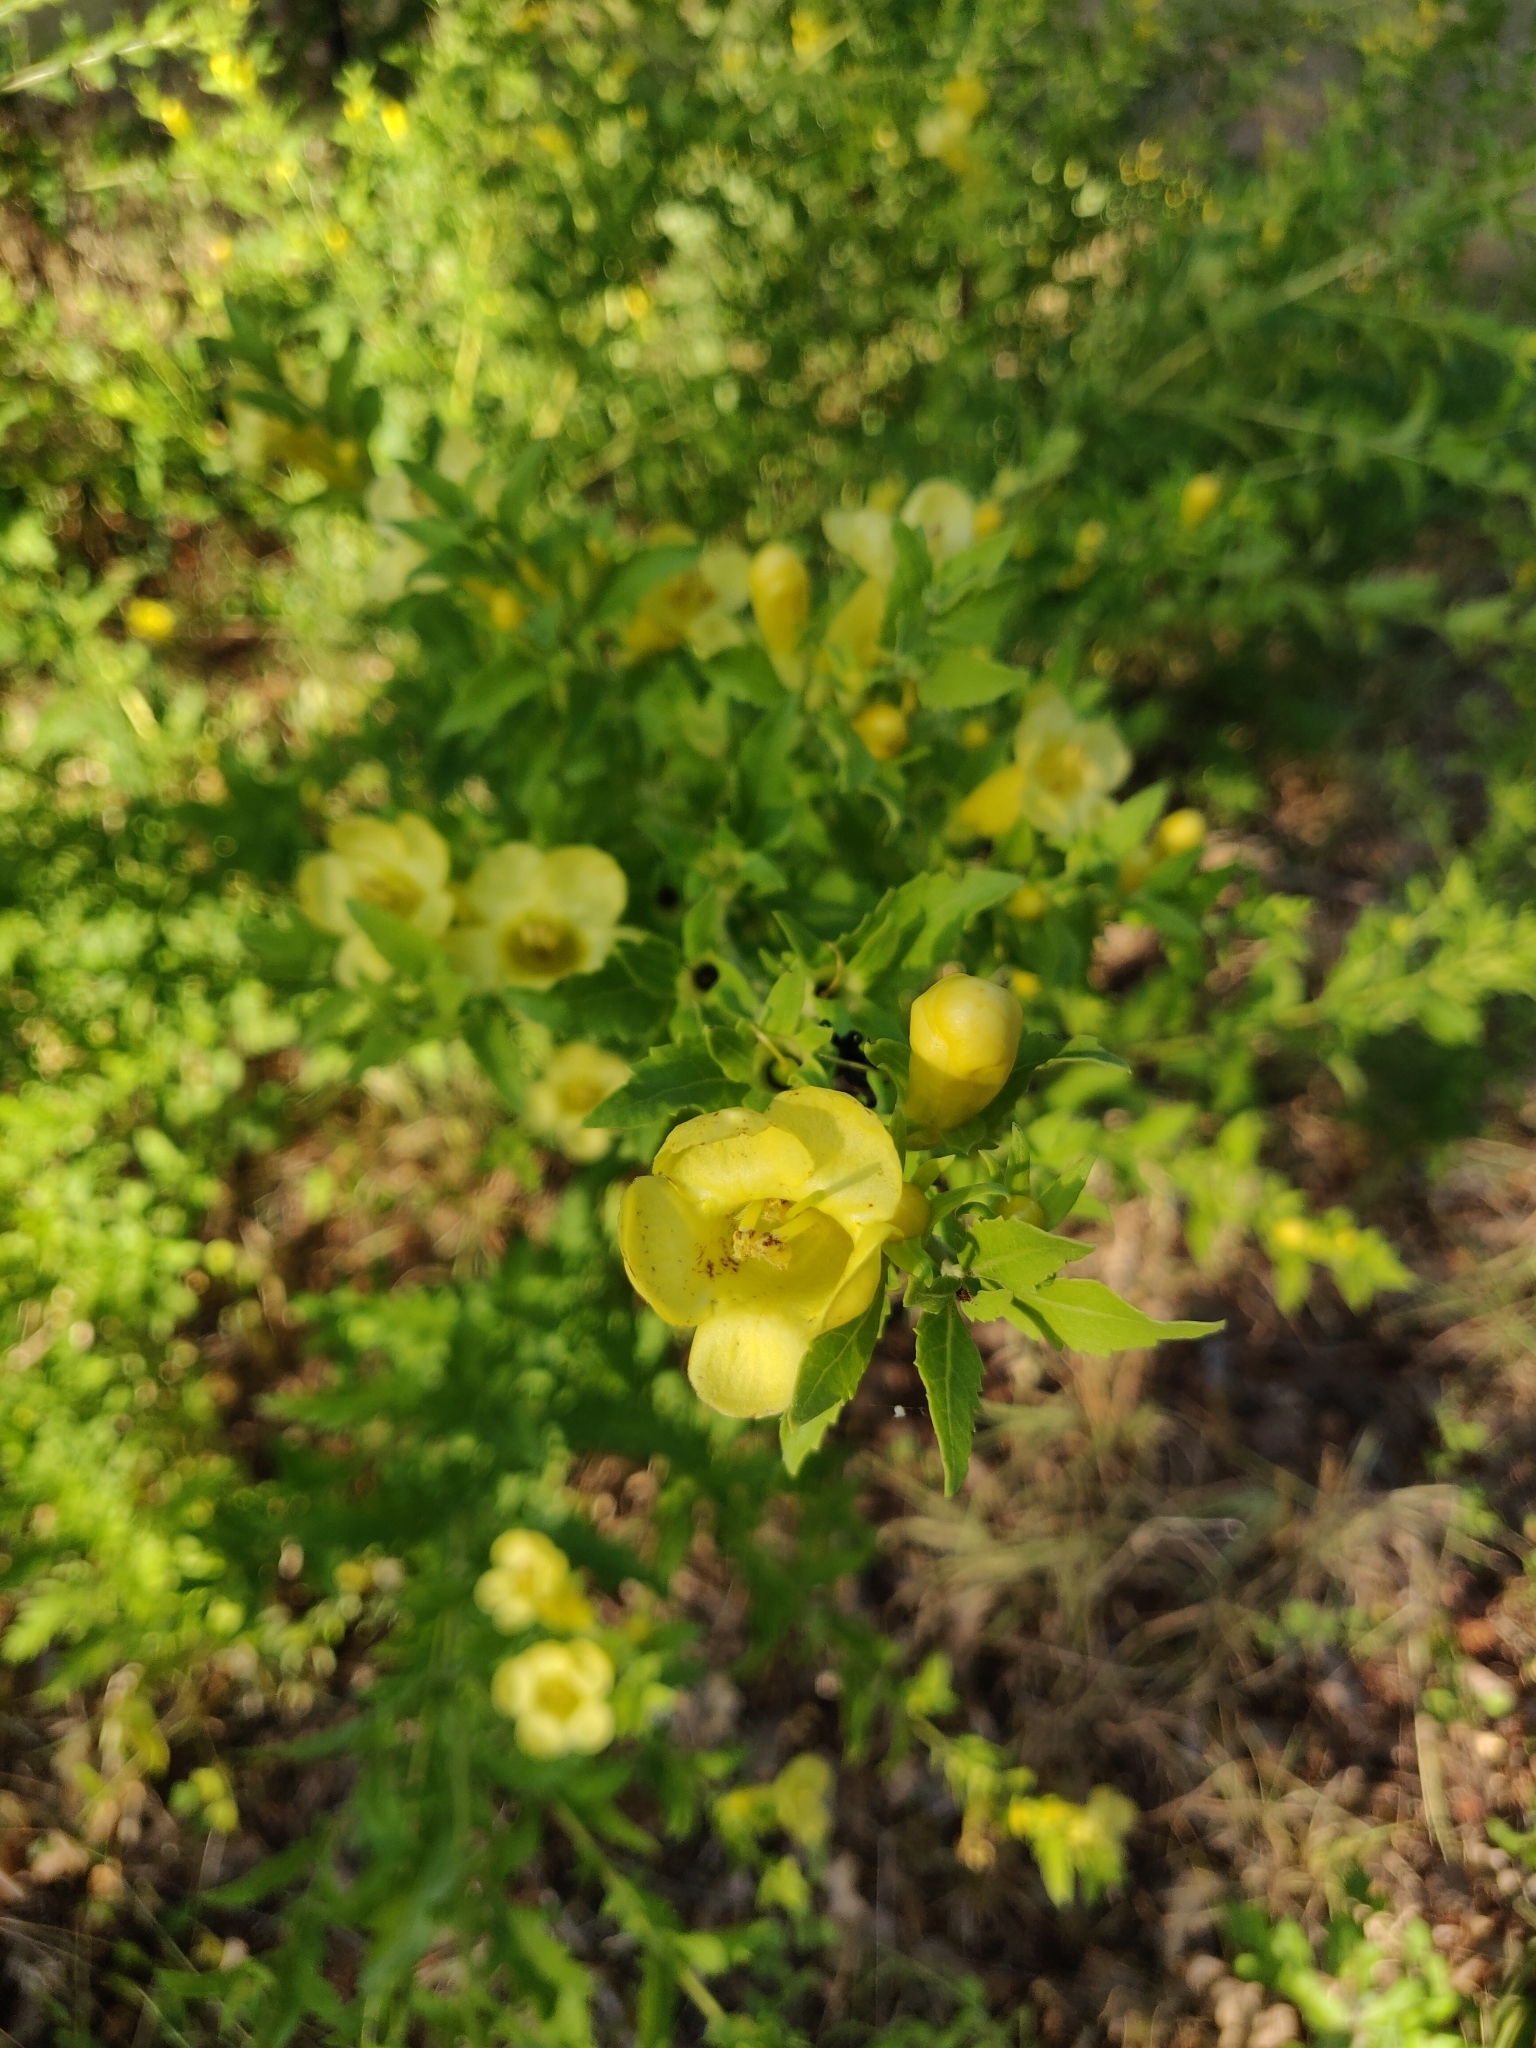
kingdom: Plantae
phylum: Tracheophyta
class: Magnoliopsida
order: Lamiales
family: Orobanchaceae
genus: Aureolaria
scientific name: Aureolaria grandiflora
